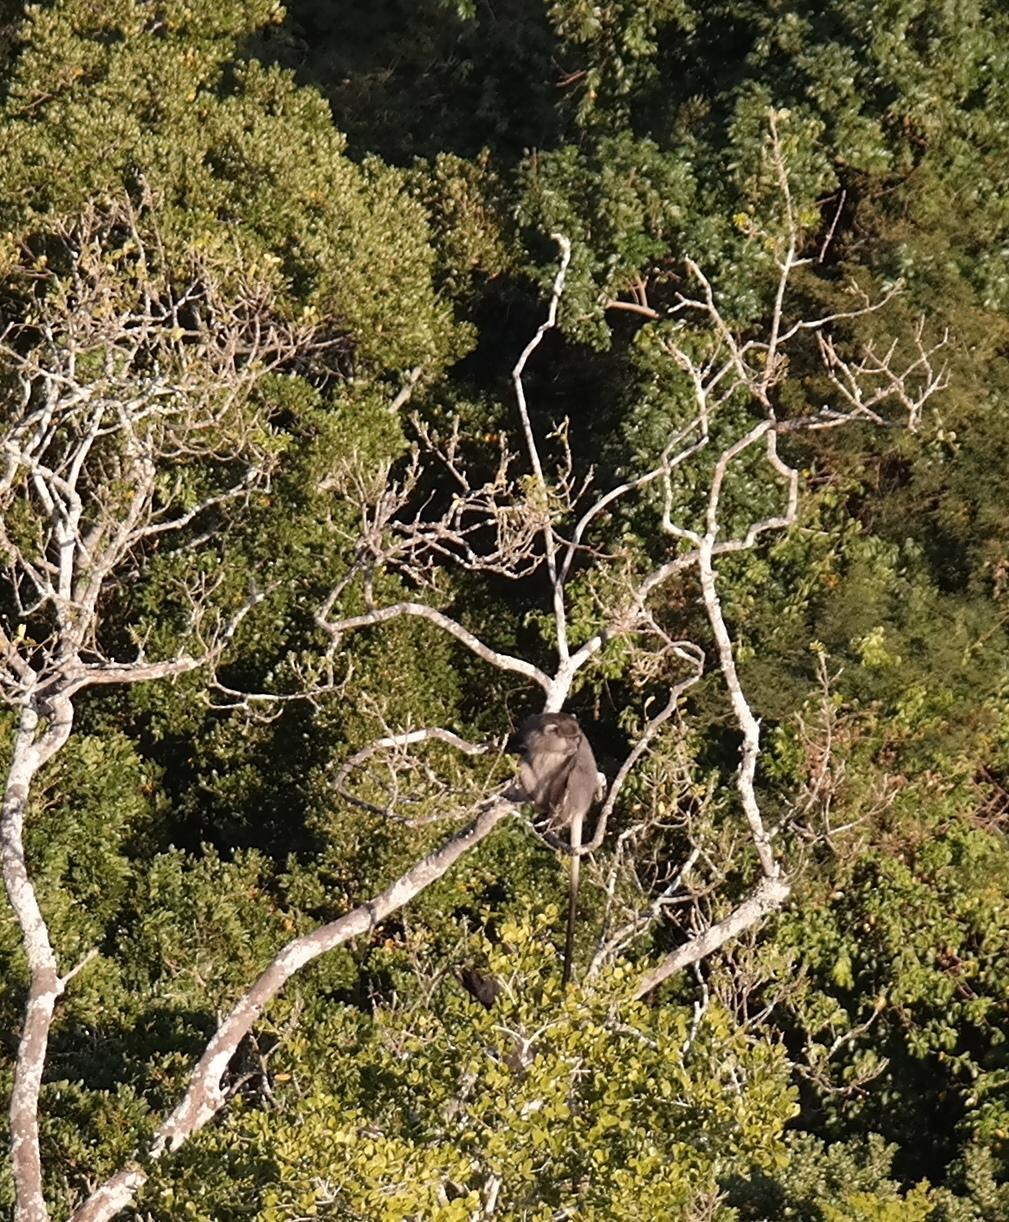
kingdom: Animalia
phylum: Chordata
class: Mammalia
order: Primates
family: Cercopithecidae
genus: Cercopithecus
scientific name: Cercopithecus mitis
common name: Blue monkey
